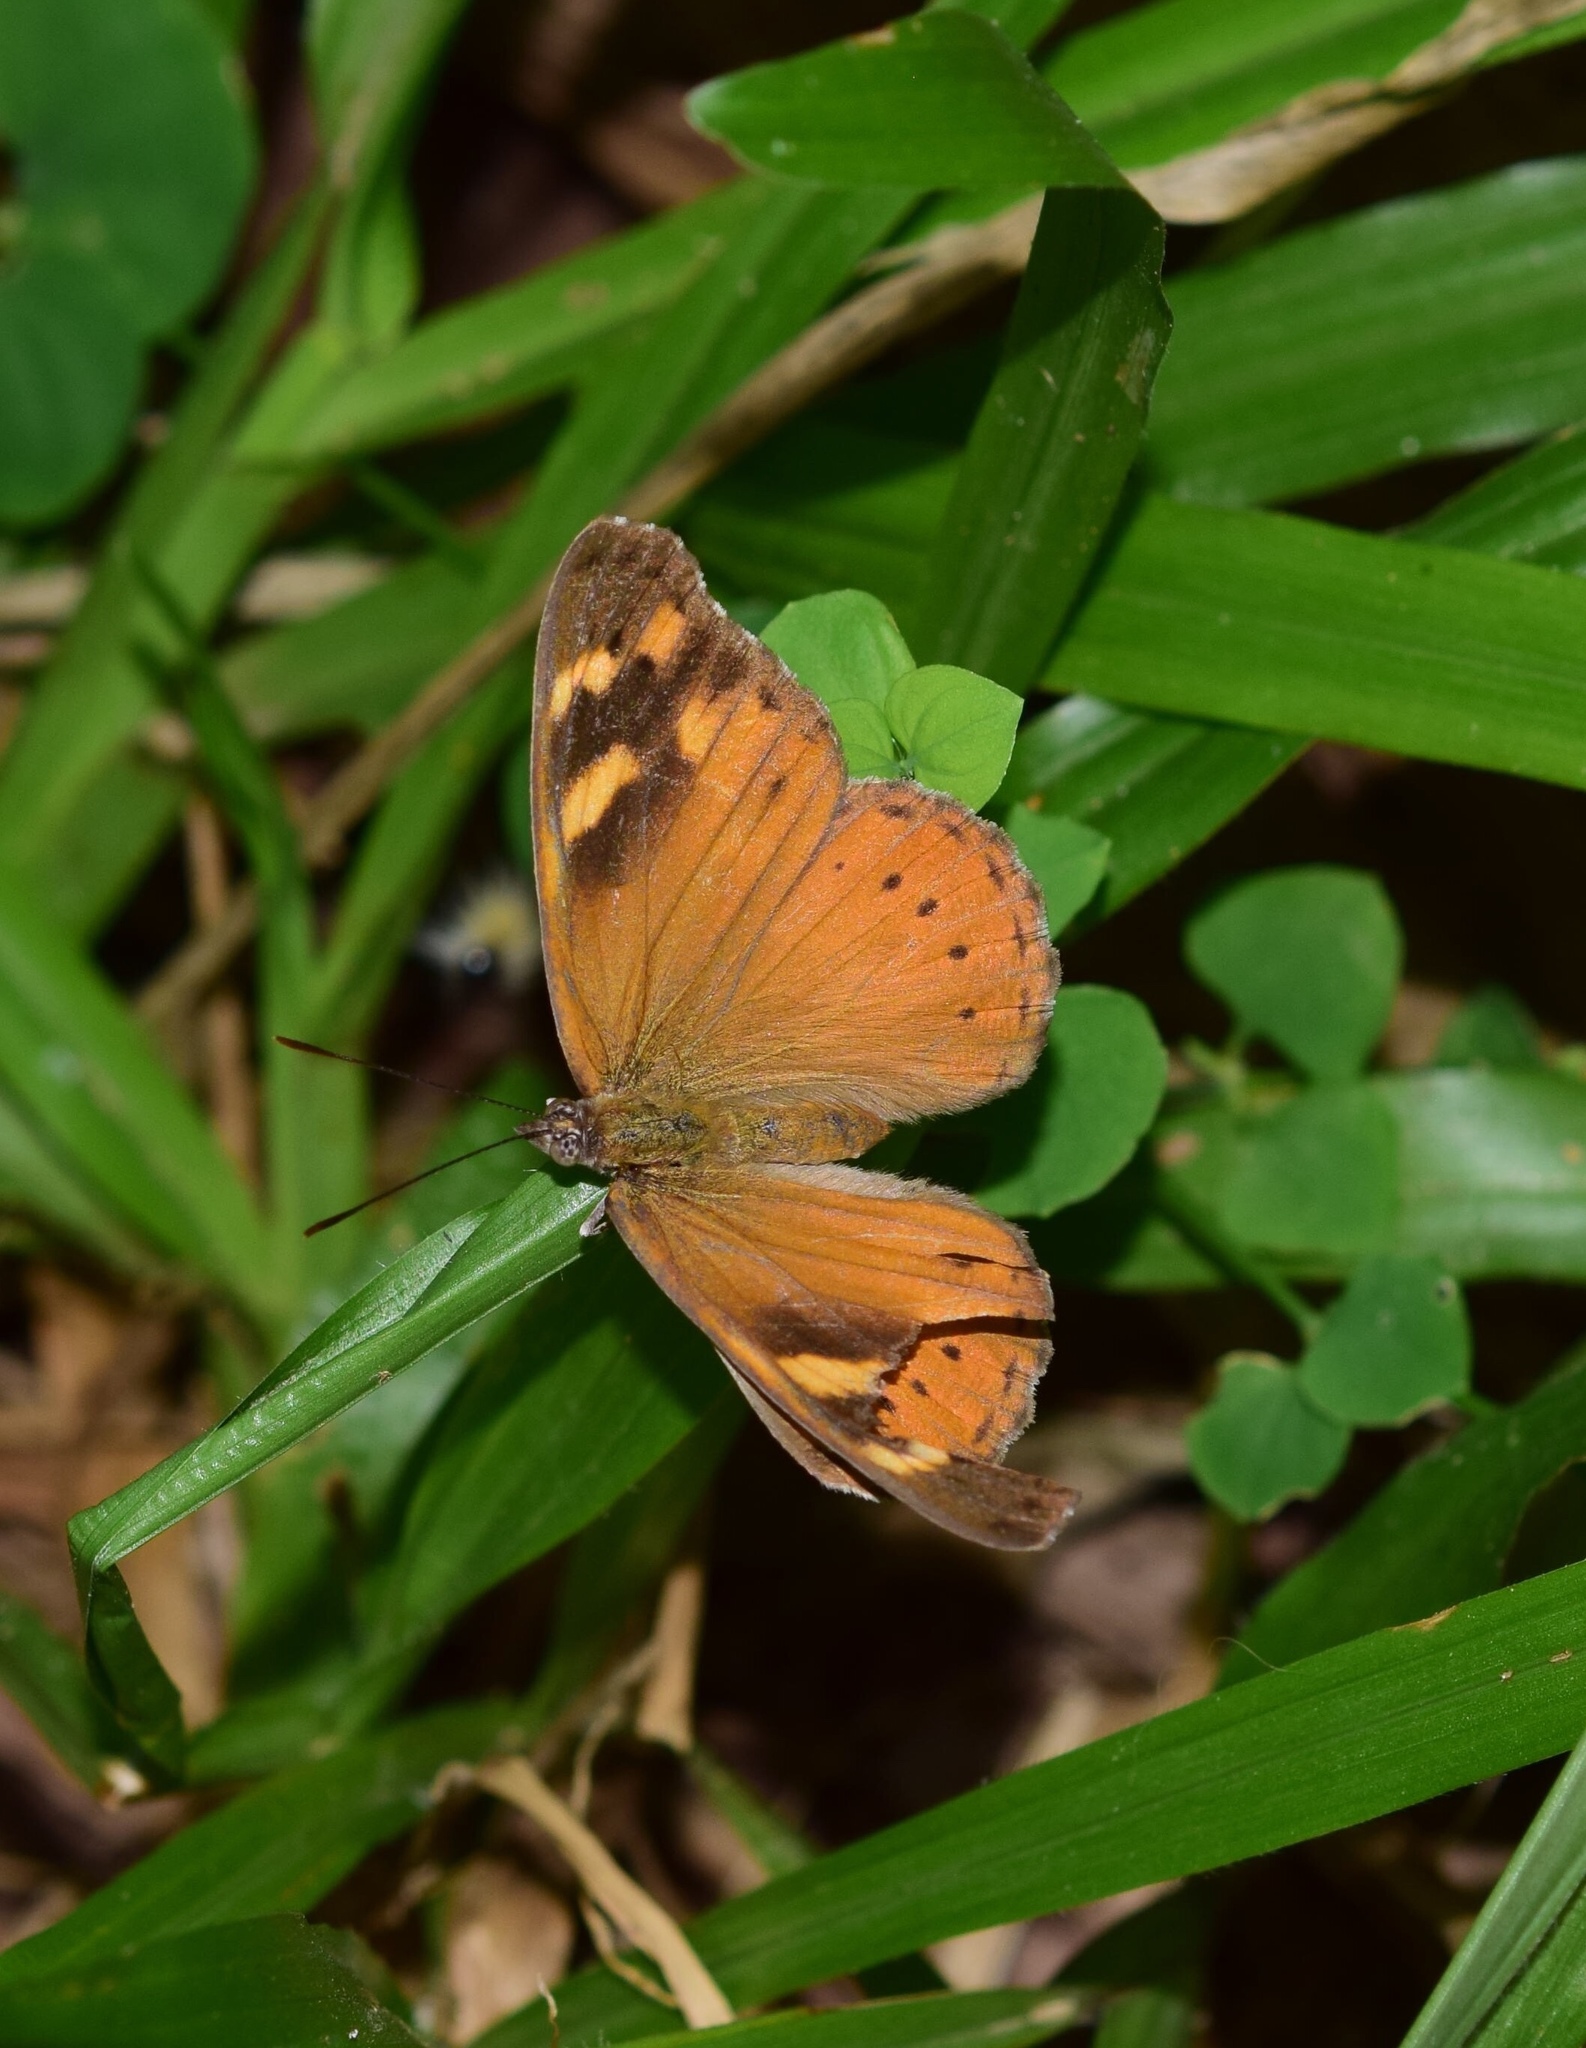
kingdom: Animalia
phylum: Arthropoda
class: Insecta
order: Lepidoptera
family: Nymphalidae
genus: Sallya
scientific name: Sallya natalensis
